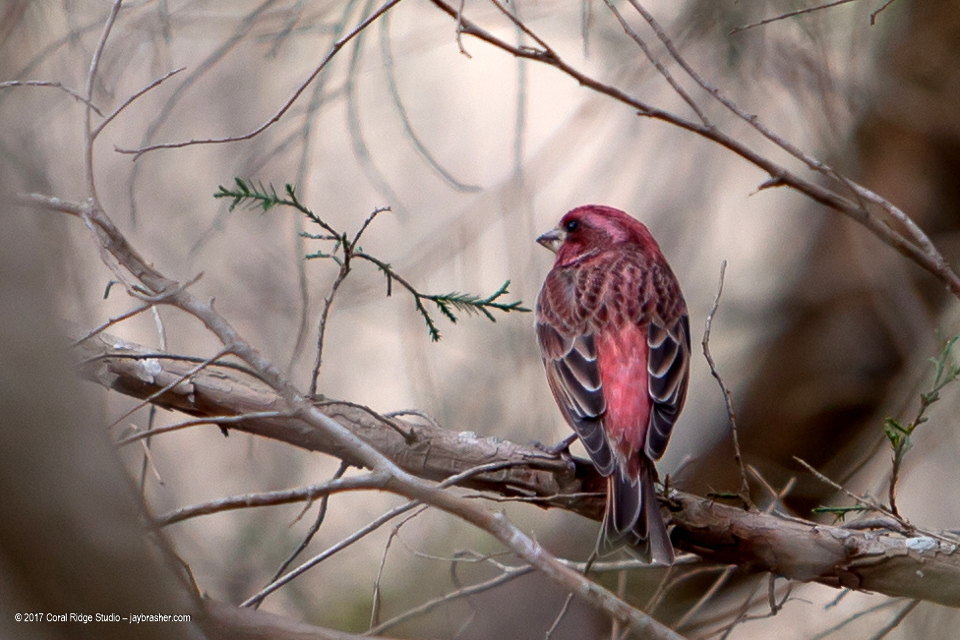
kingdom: Animalia
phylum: Chordata
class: Aves
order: Passeriformes
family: Fringillidae
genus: Haemorhous
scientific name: Haemorhous purpureus
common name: Purple finch
